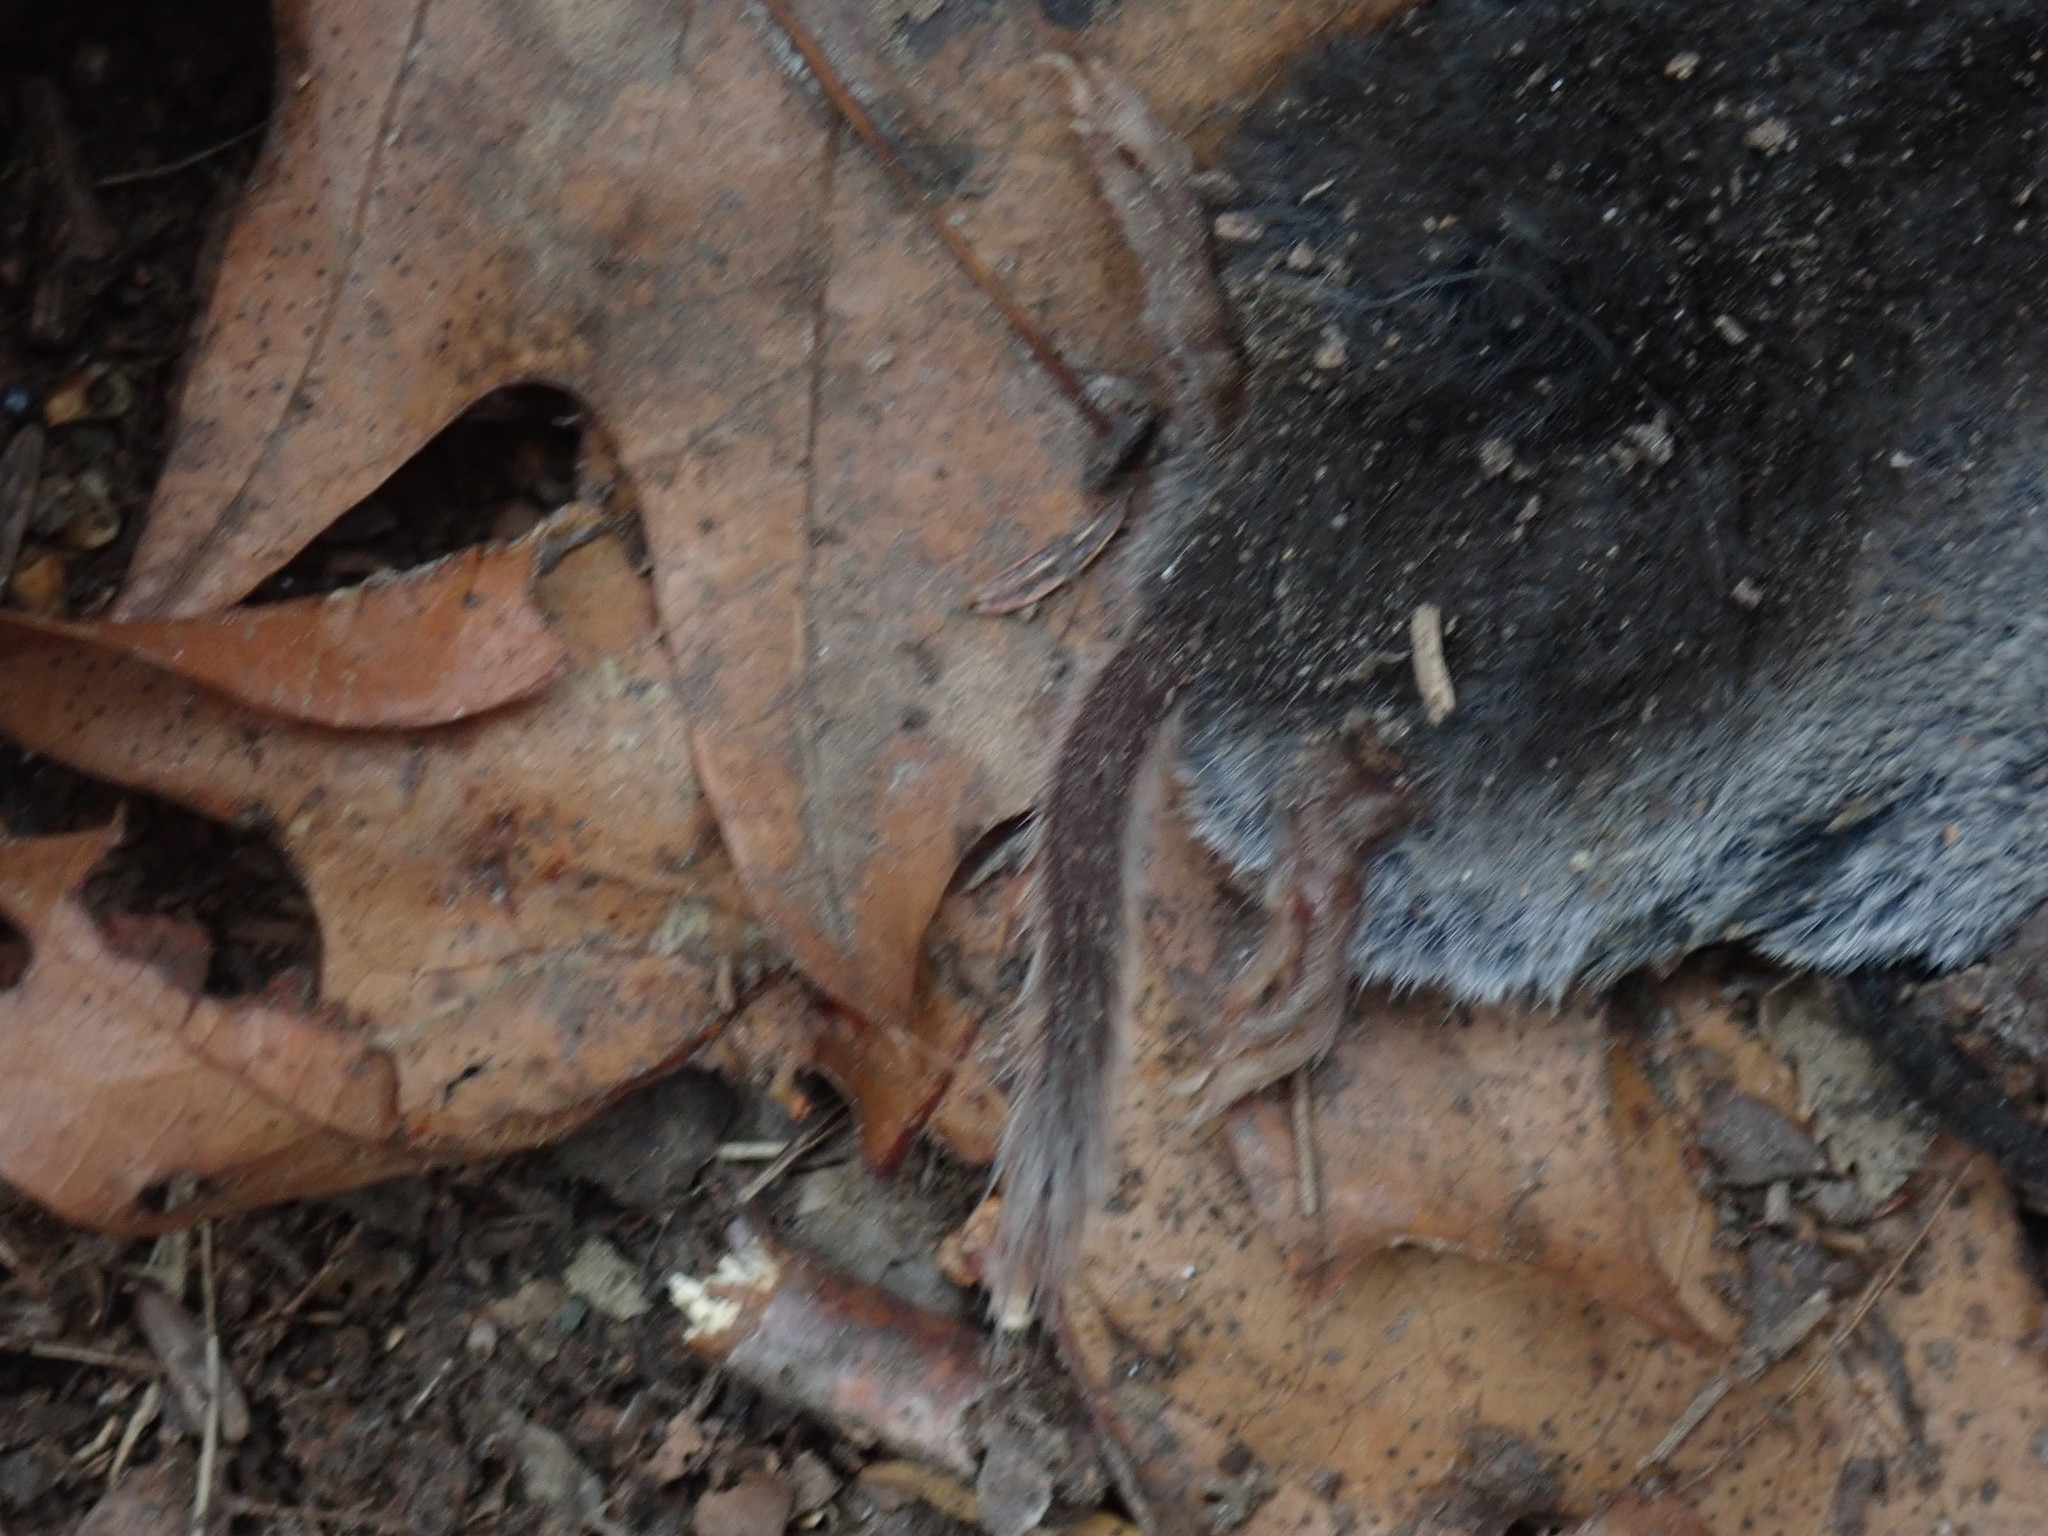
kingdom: Animalia
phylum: Chordata
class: Mammalia
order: Soricomorpha
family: Soricidae
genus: Blarina
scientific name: Blarina brevicauda
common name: Northern short-tailed shrew
